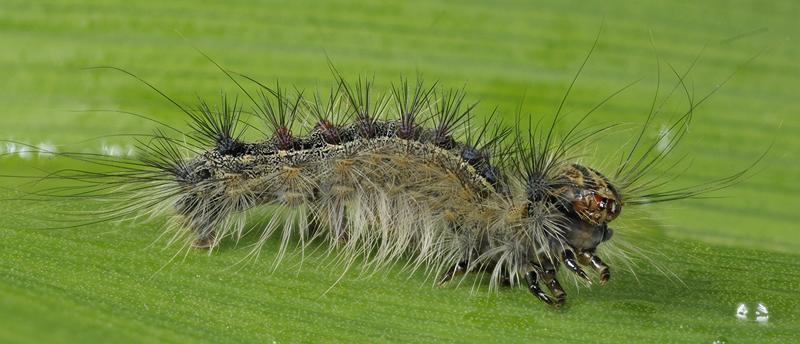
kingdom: Animalia
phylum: Arthropoda
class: Insecta
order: Lepidoptera
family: Erebidae
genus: Lymantria
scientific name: Lymantria dispar
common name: Gypsy moth
